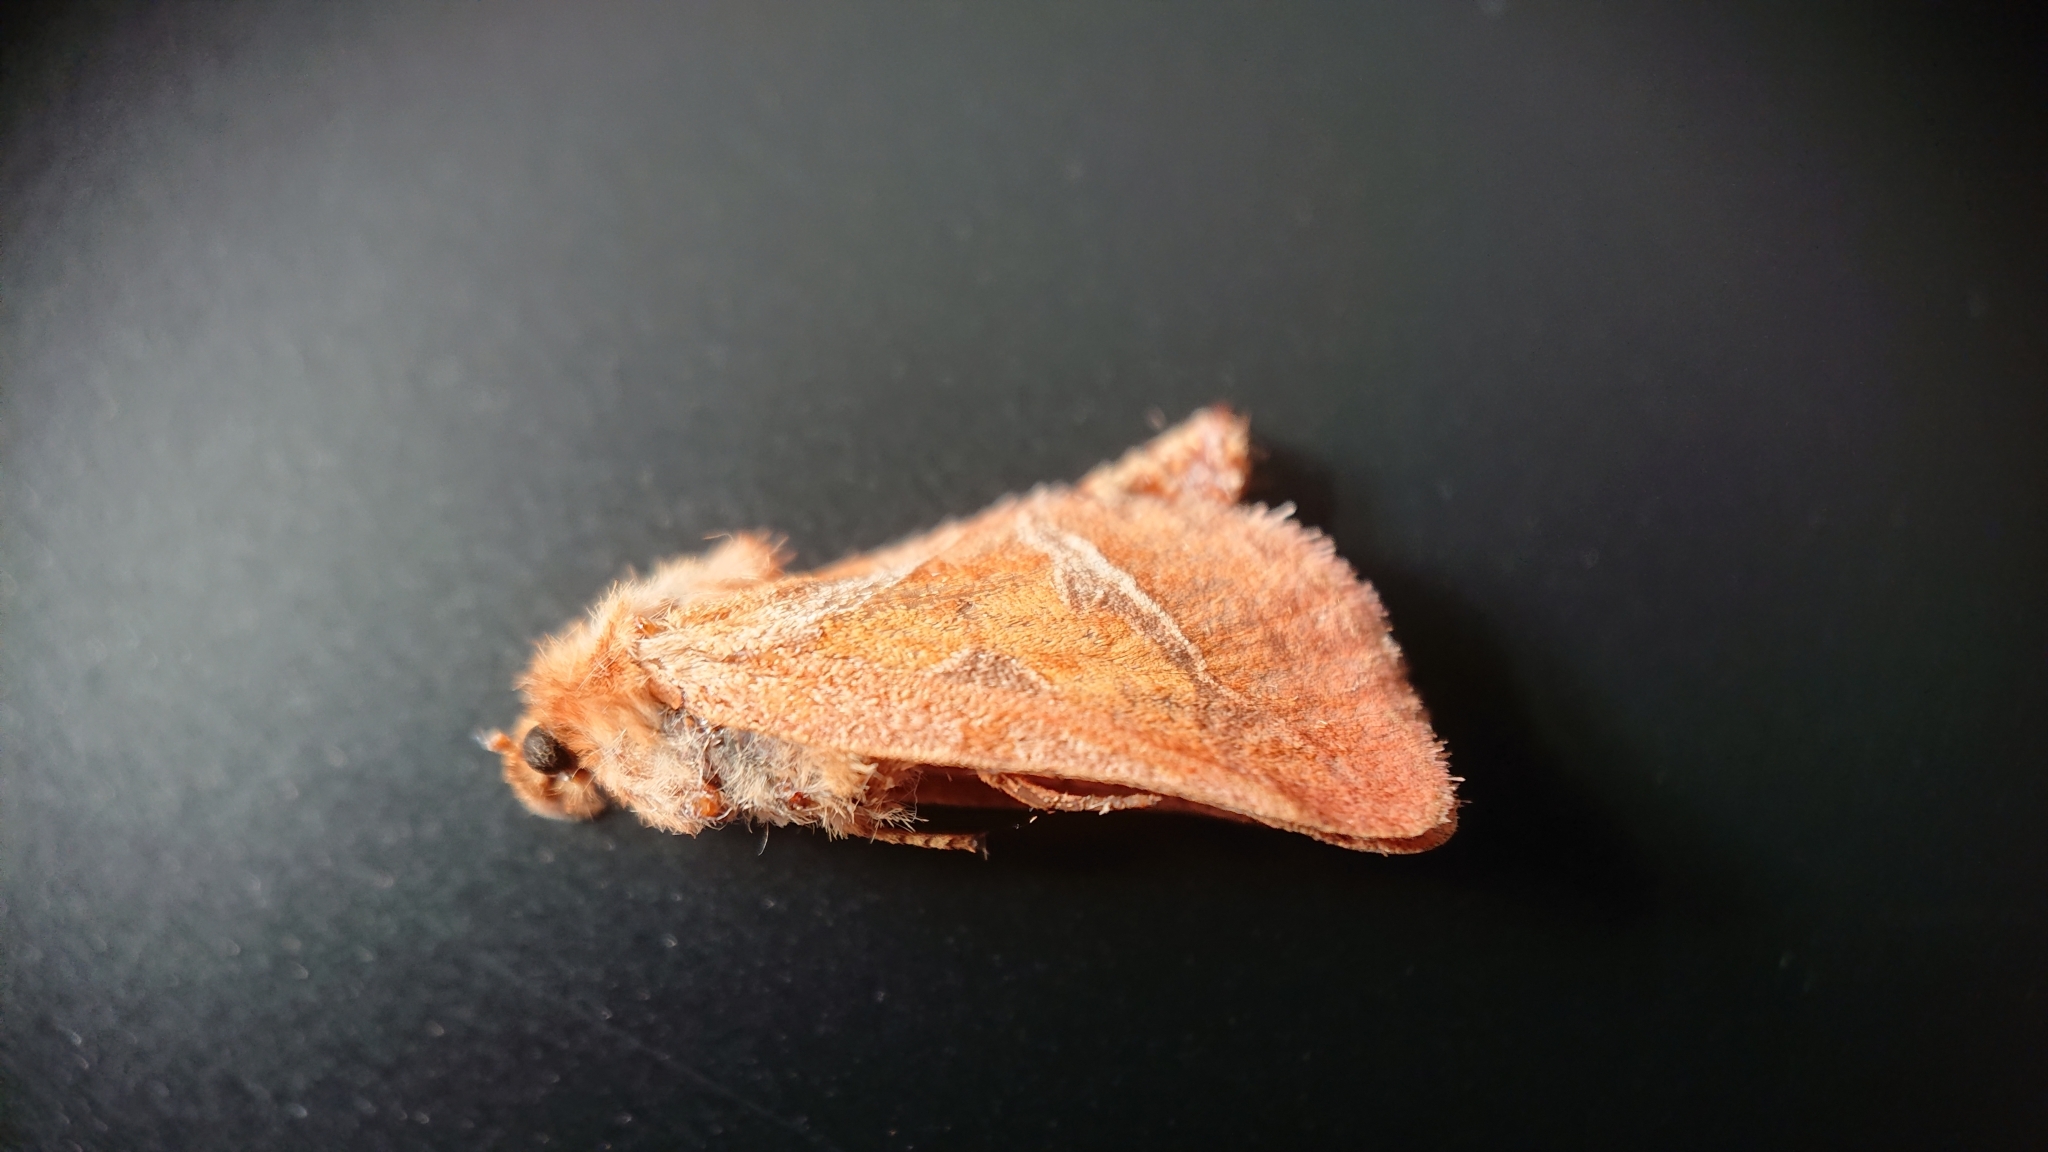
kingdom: Animalia
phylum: Arthropoda
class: Insecta
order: Lepidoptera
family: Hepialidae
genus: Triodia
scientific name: Triodia sylvina
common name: Orange swift
